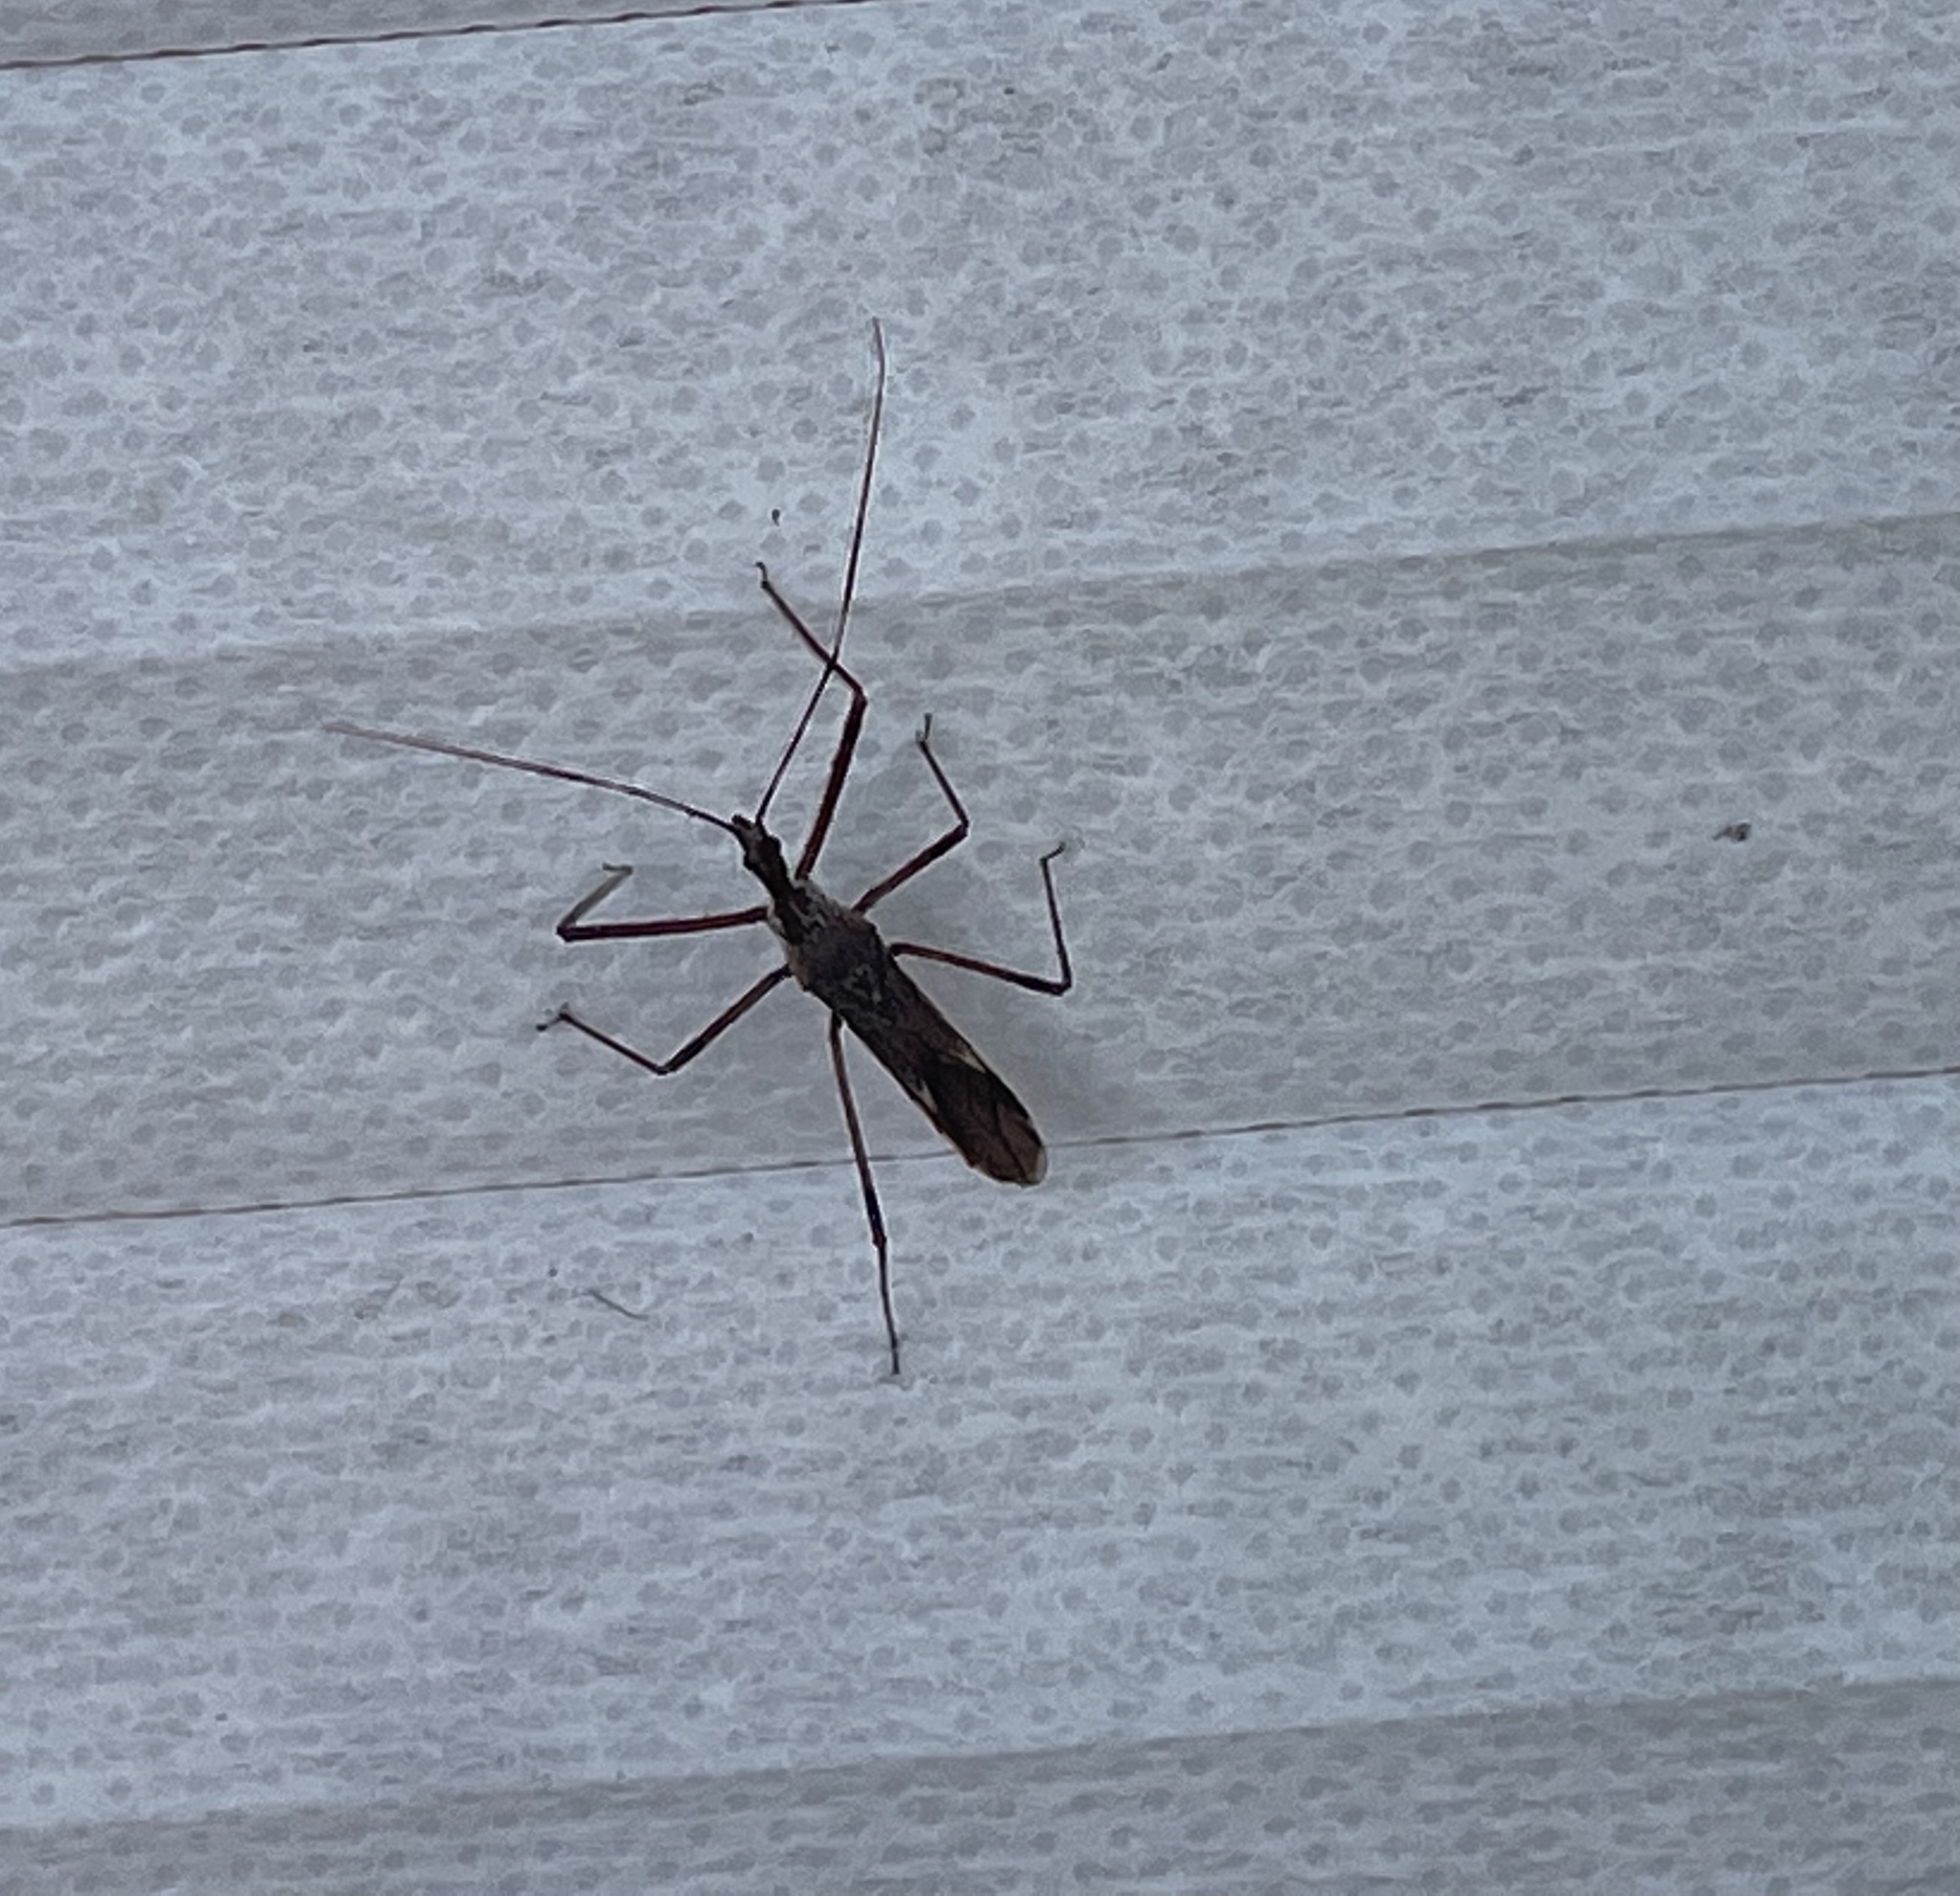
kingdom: Animalia
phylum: Arthropoda
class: Insecta
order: Hemiptera
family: Reduviidae
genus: Zelus
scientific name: Zelus tetracanthus
